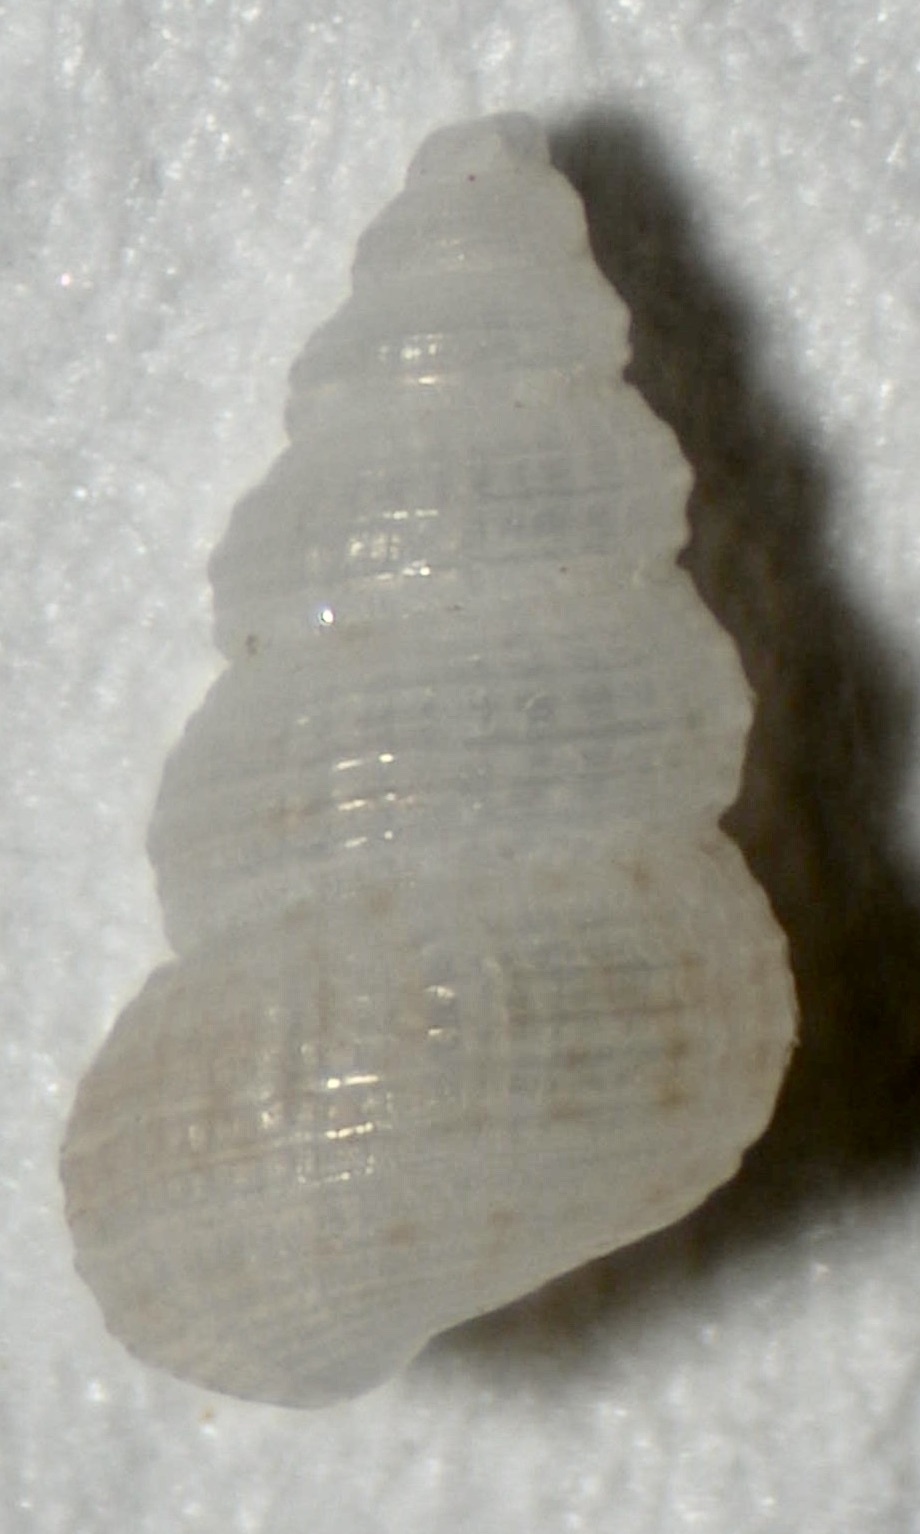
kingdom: Animalia
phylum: Mollusca
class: Gastropoda
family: Scaliolidae
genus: Finella
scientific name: Finella dubia
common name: Dubious finella
